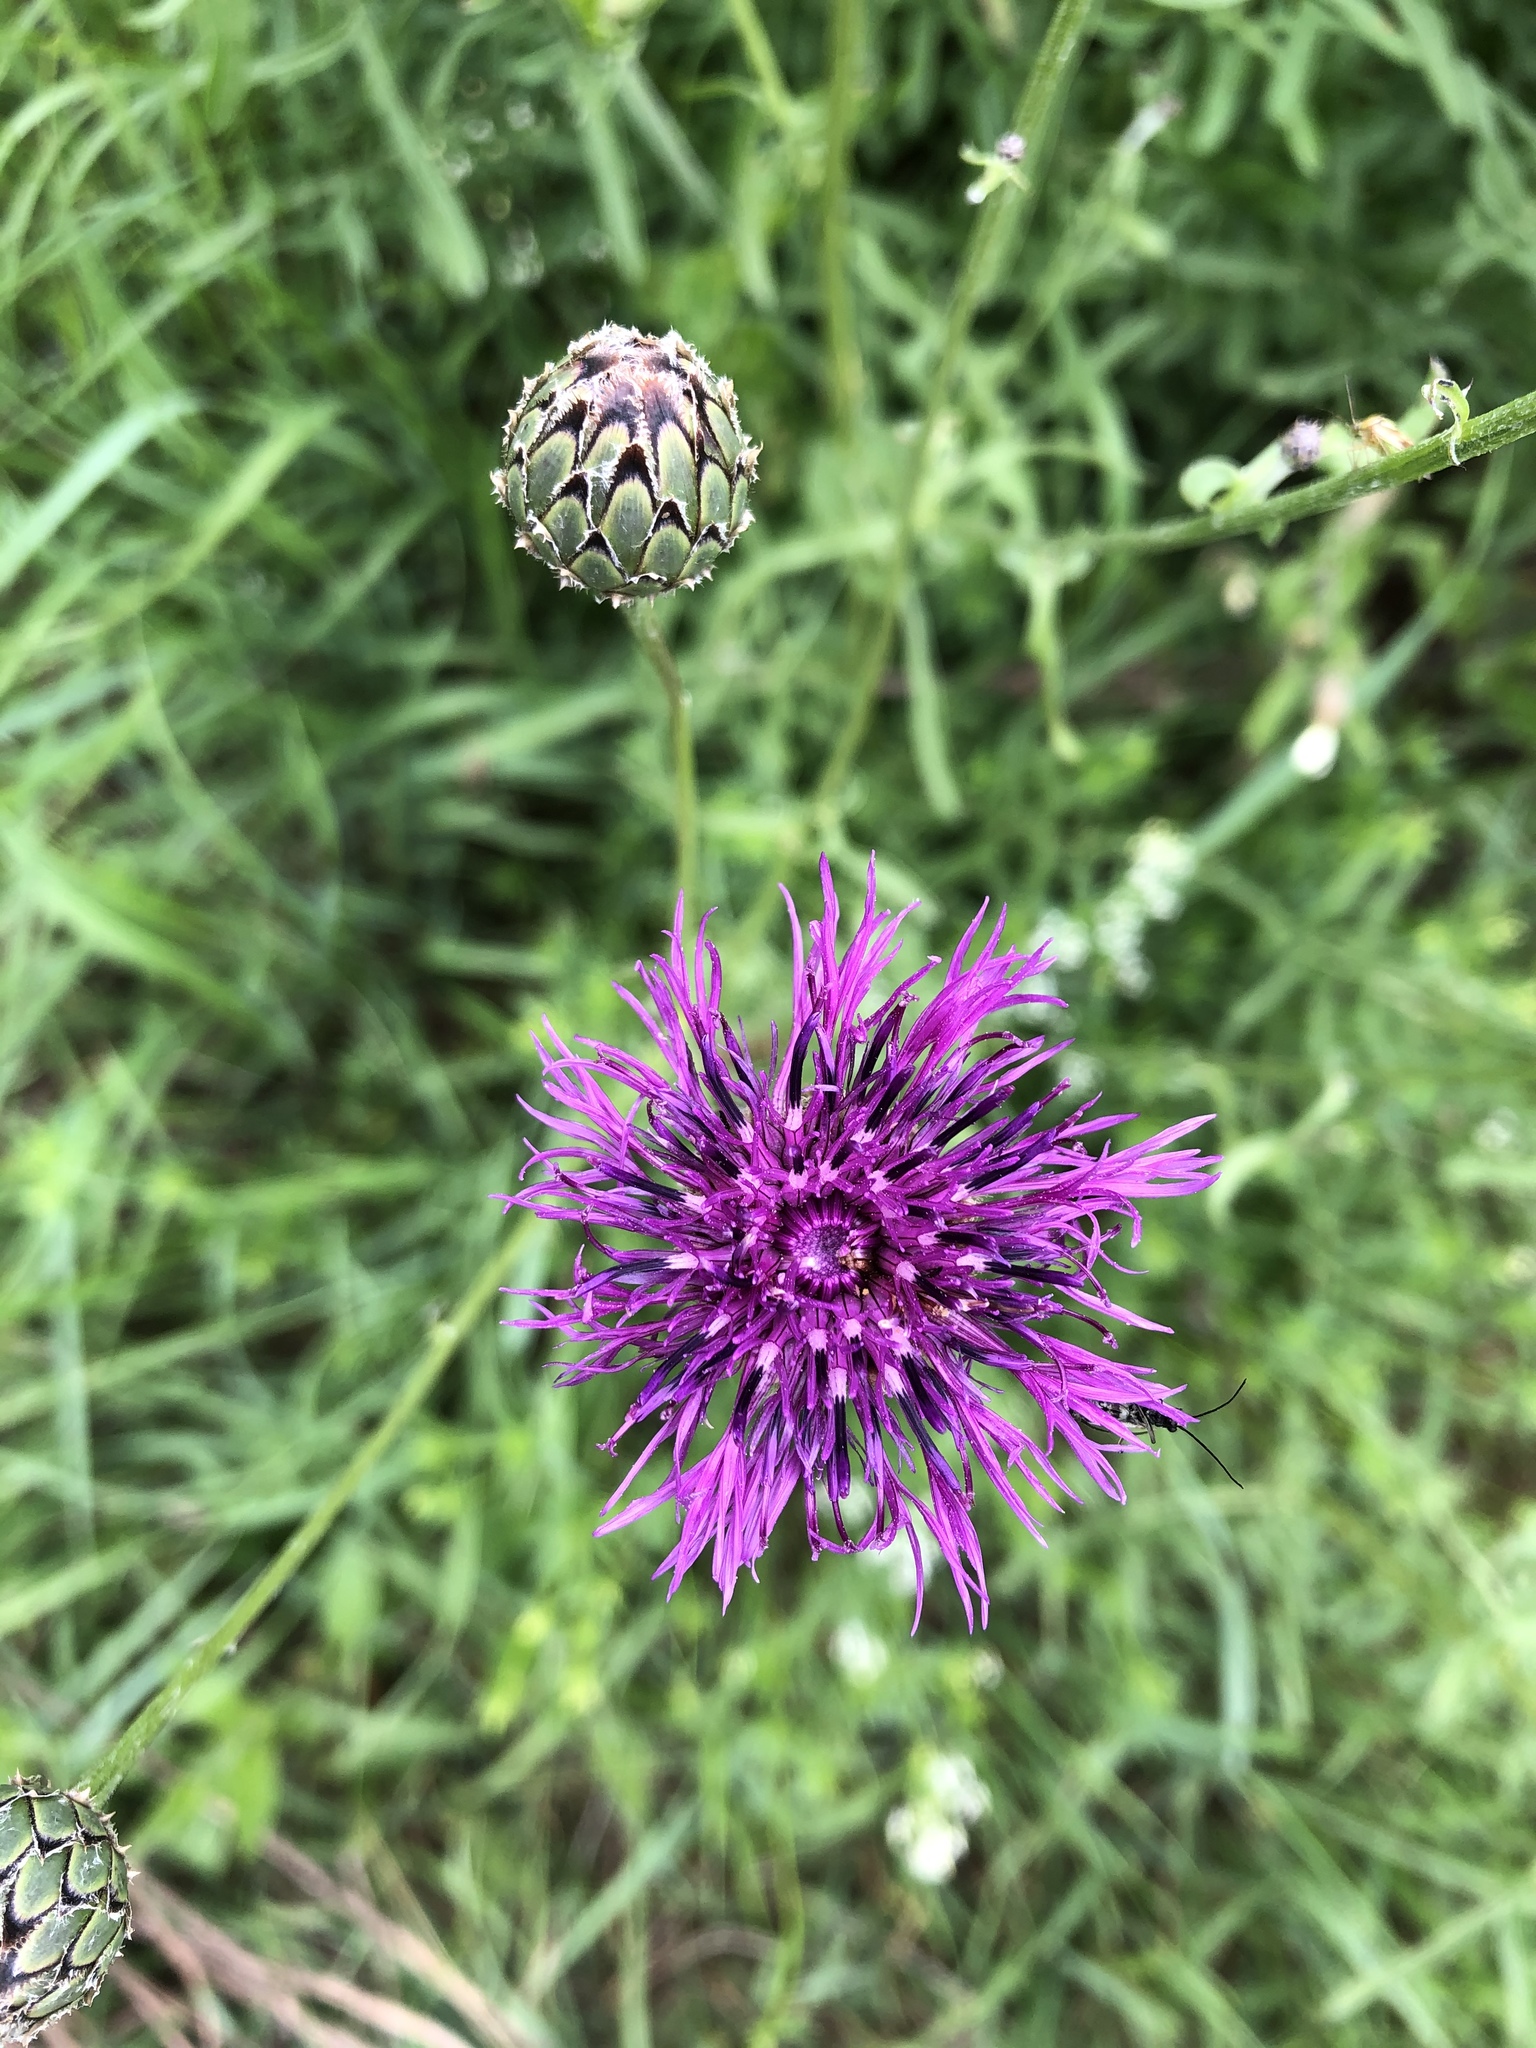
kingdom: Plantae
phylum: Tracheophyta
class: Magnoliopsida
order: Asterales
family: Asteraceae
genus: Centaurea
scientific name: Centaurea scabiosa
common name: Greater knapweed
